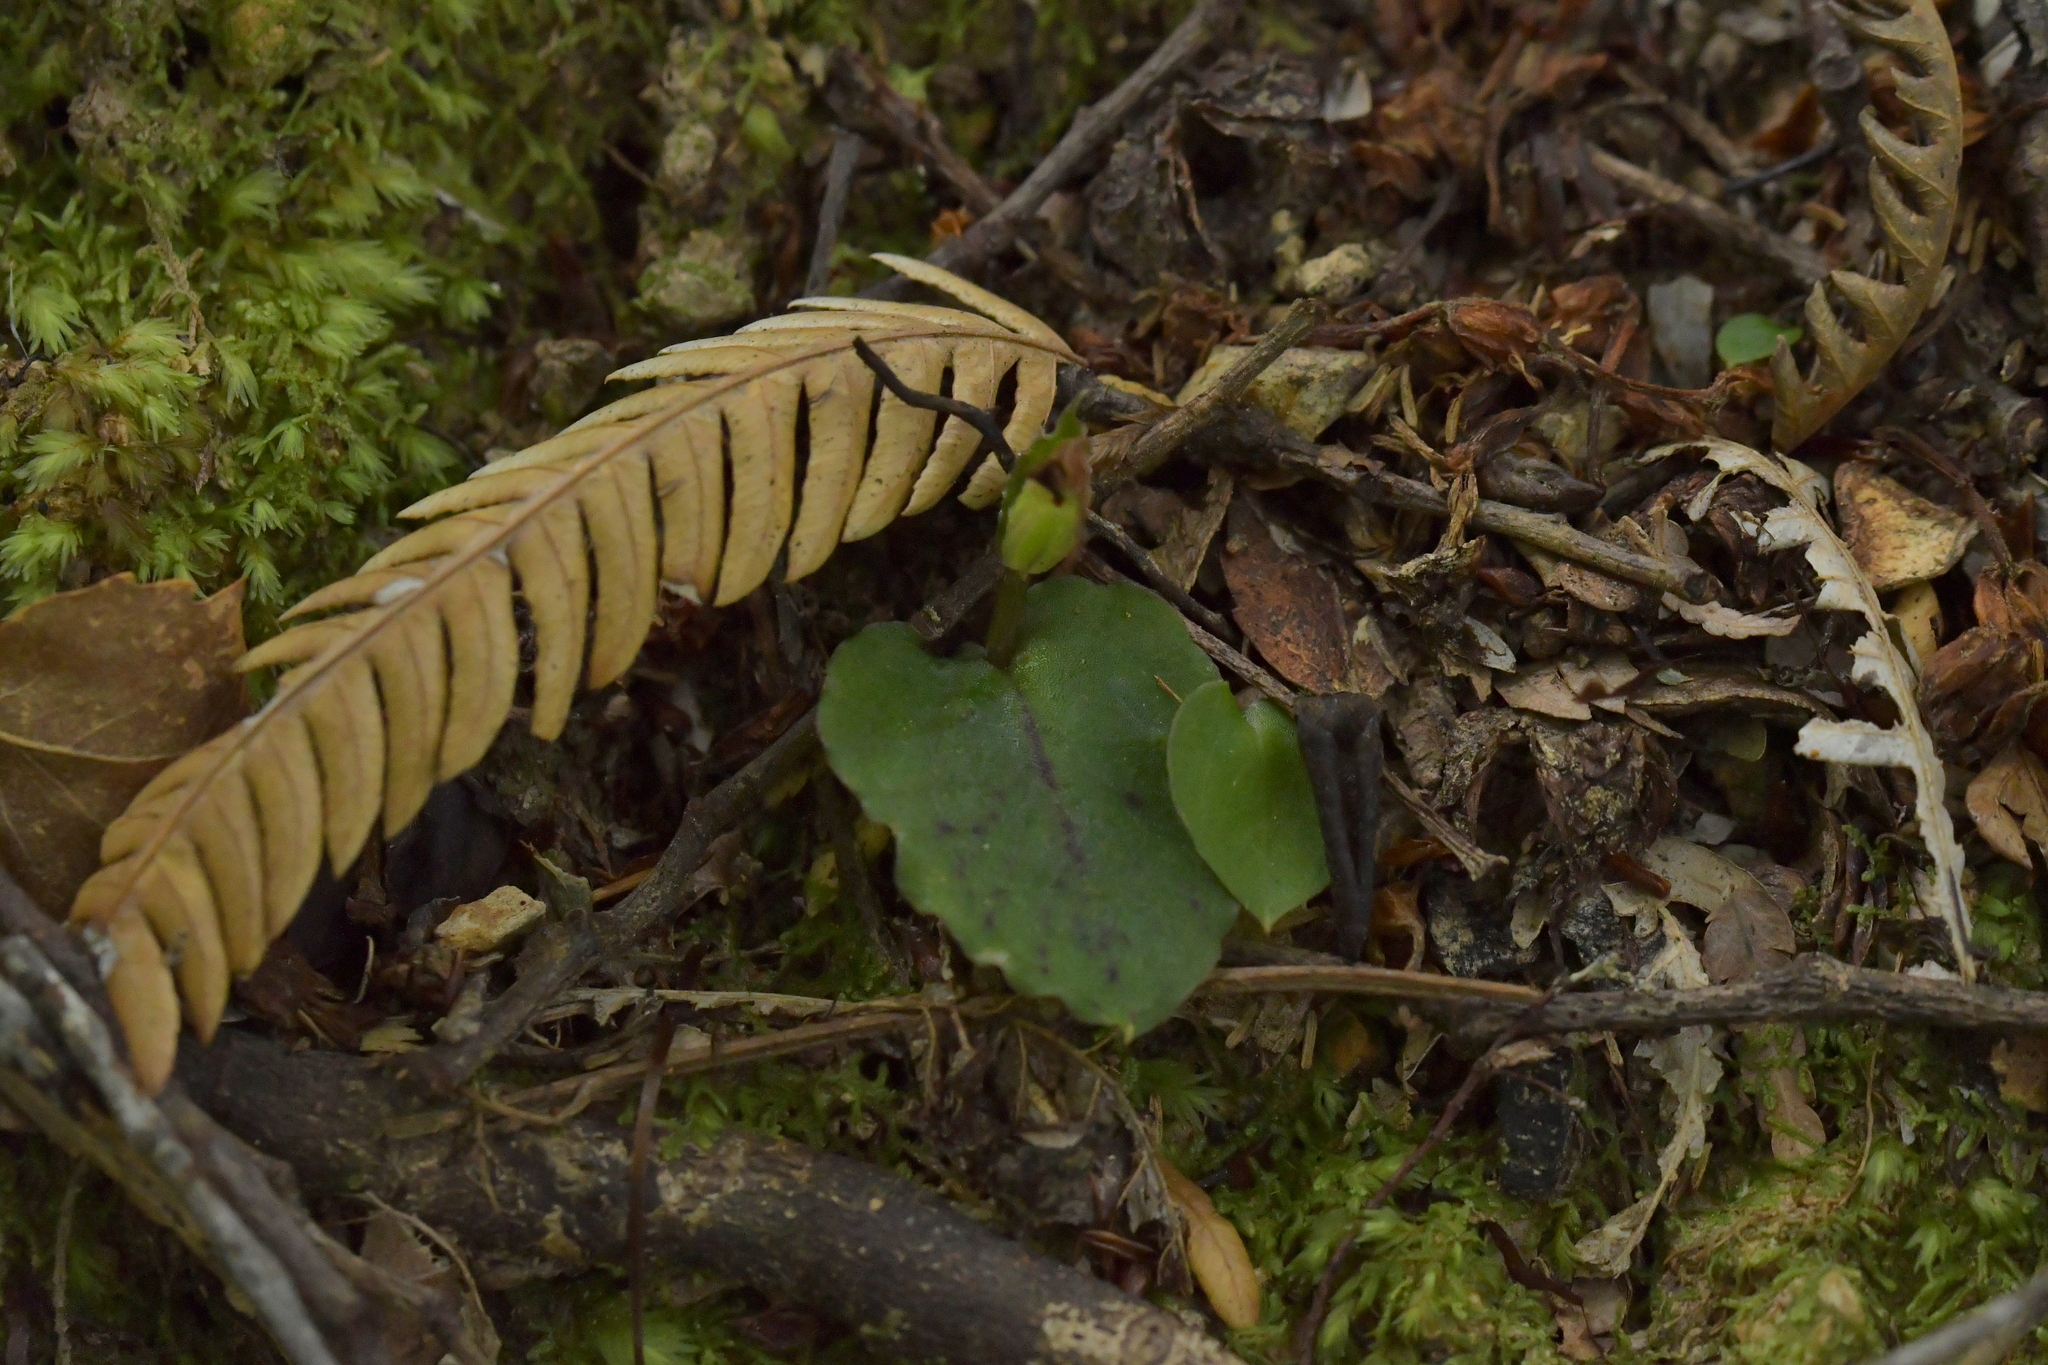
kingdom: Plantae
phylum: Tracheophyta
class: Liliopsida
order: Asparagales
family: Orchidaceae
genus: Corybas
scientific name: Corybas oblongus
